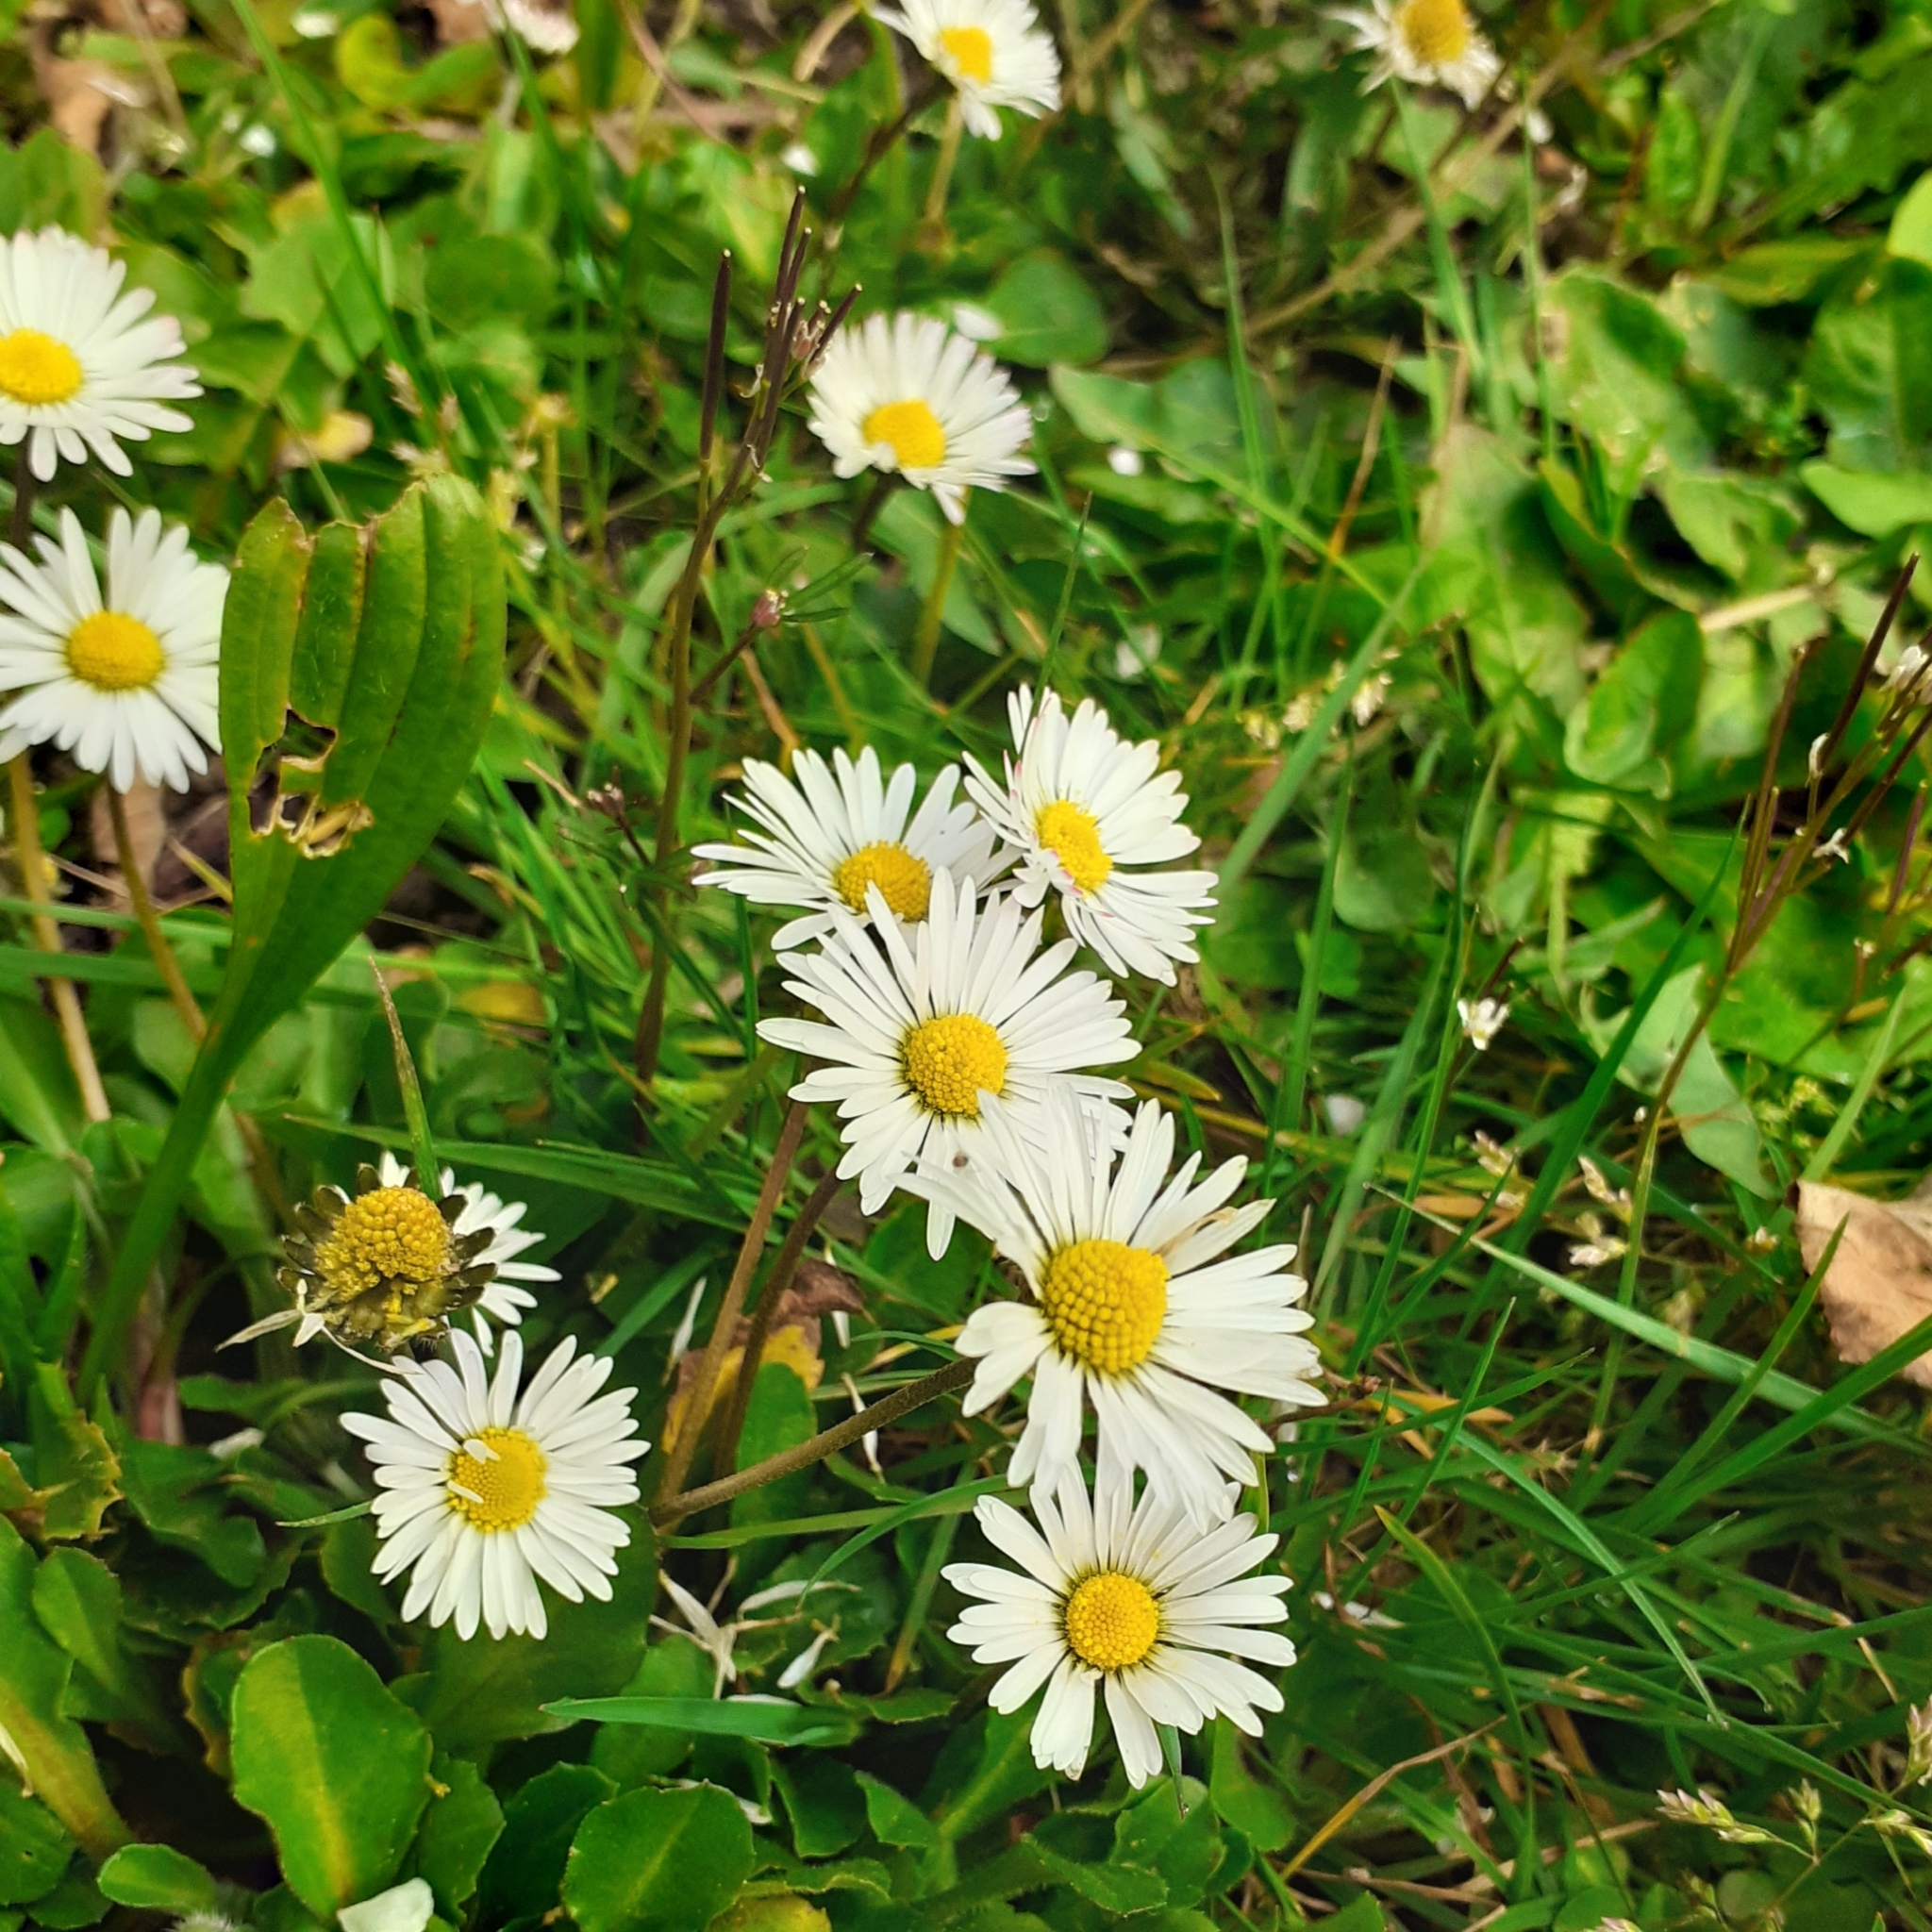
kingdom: Plantae
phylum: Tracheophyta
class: Magnoliopsida
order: Asterales
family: Asteraceae
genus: Bellis
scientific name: Bellis perennis
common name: Lawndaisy
